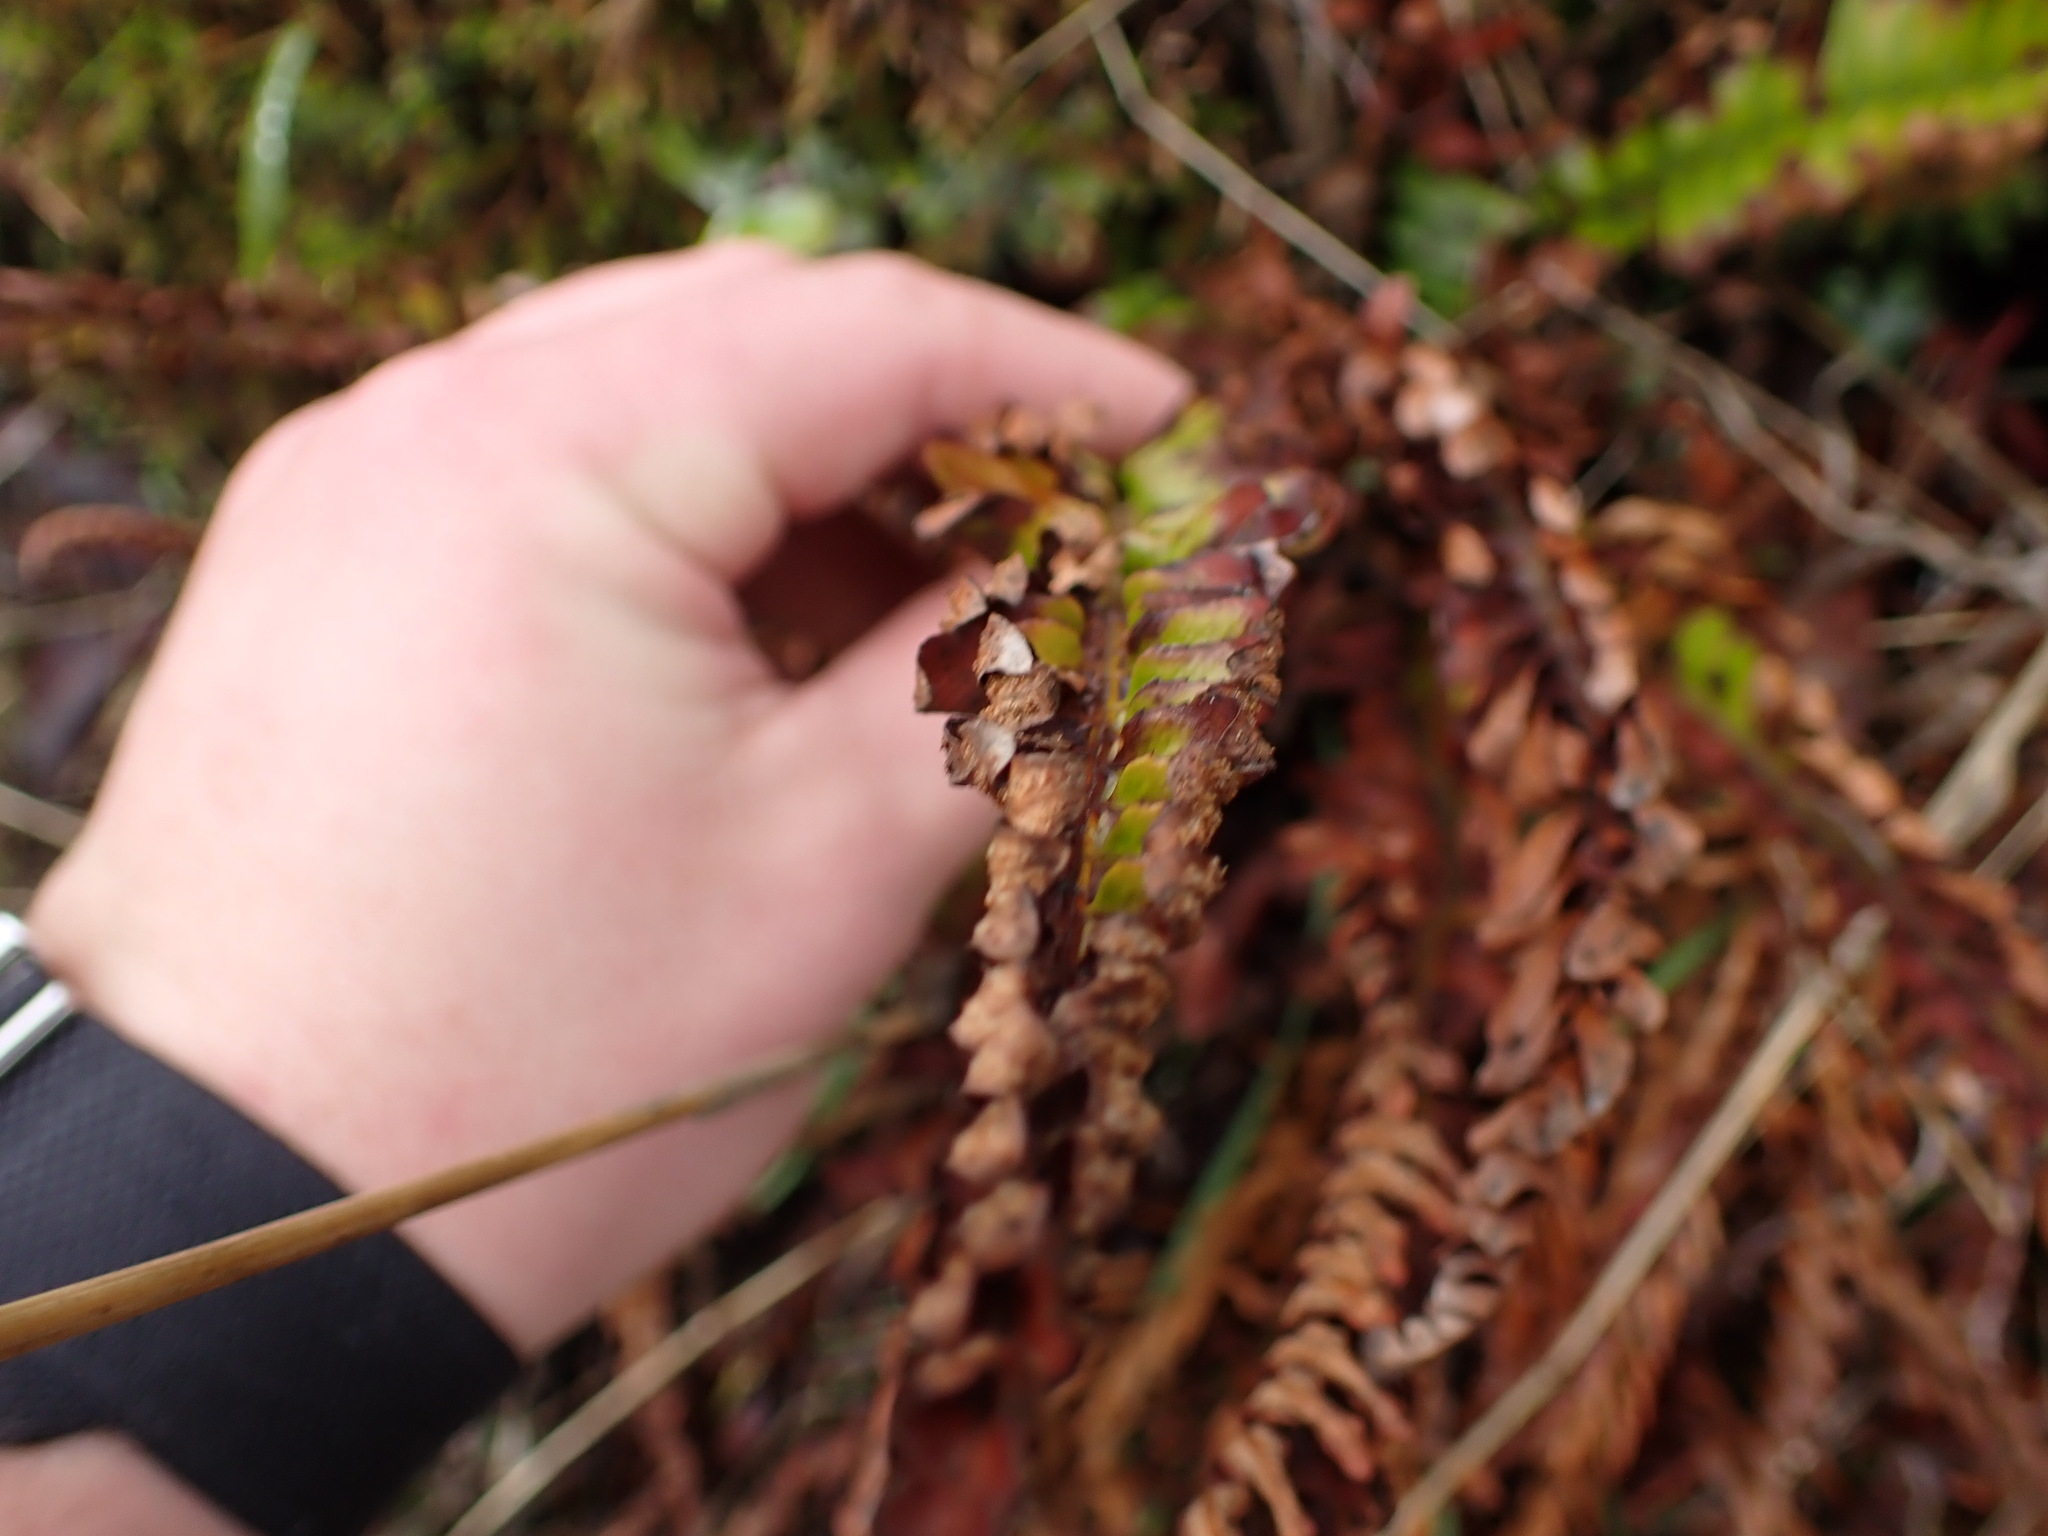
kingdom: Plantae
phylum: Tracheophyta
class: Polypodiopsida
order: Polypodiales
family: Dryopteridaceae
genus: Polystichum
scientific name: Polystichum imbricans
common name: Dwarf western sword fern
